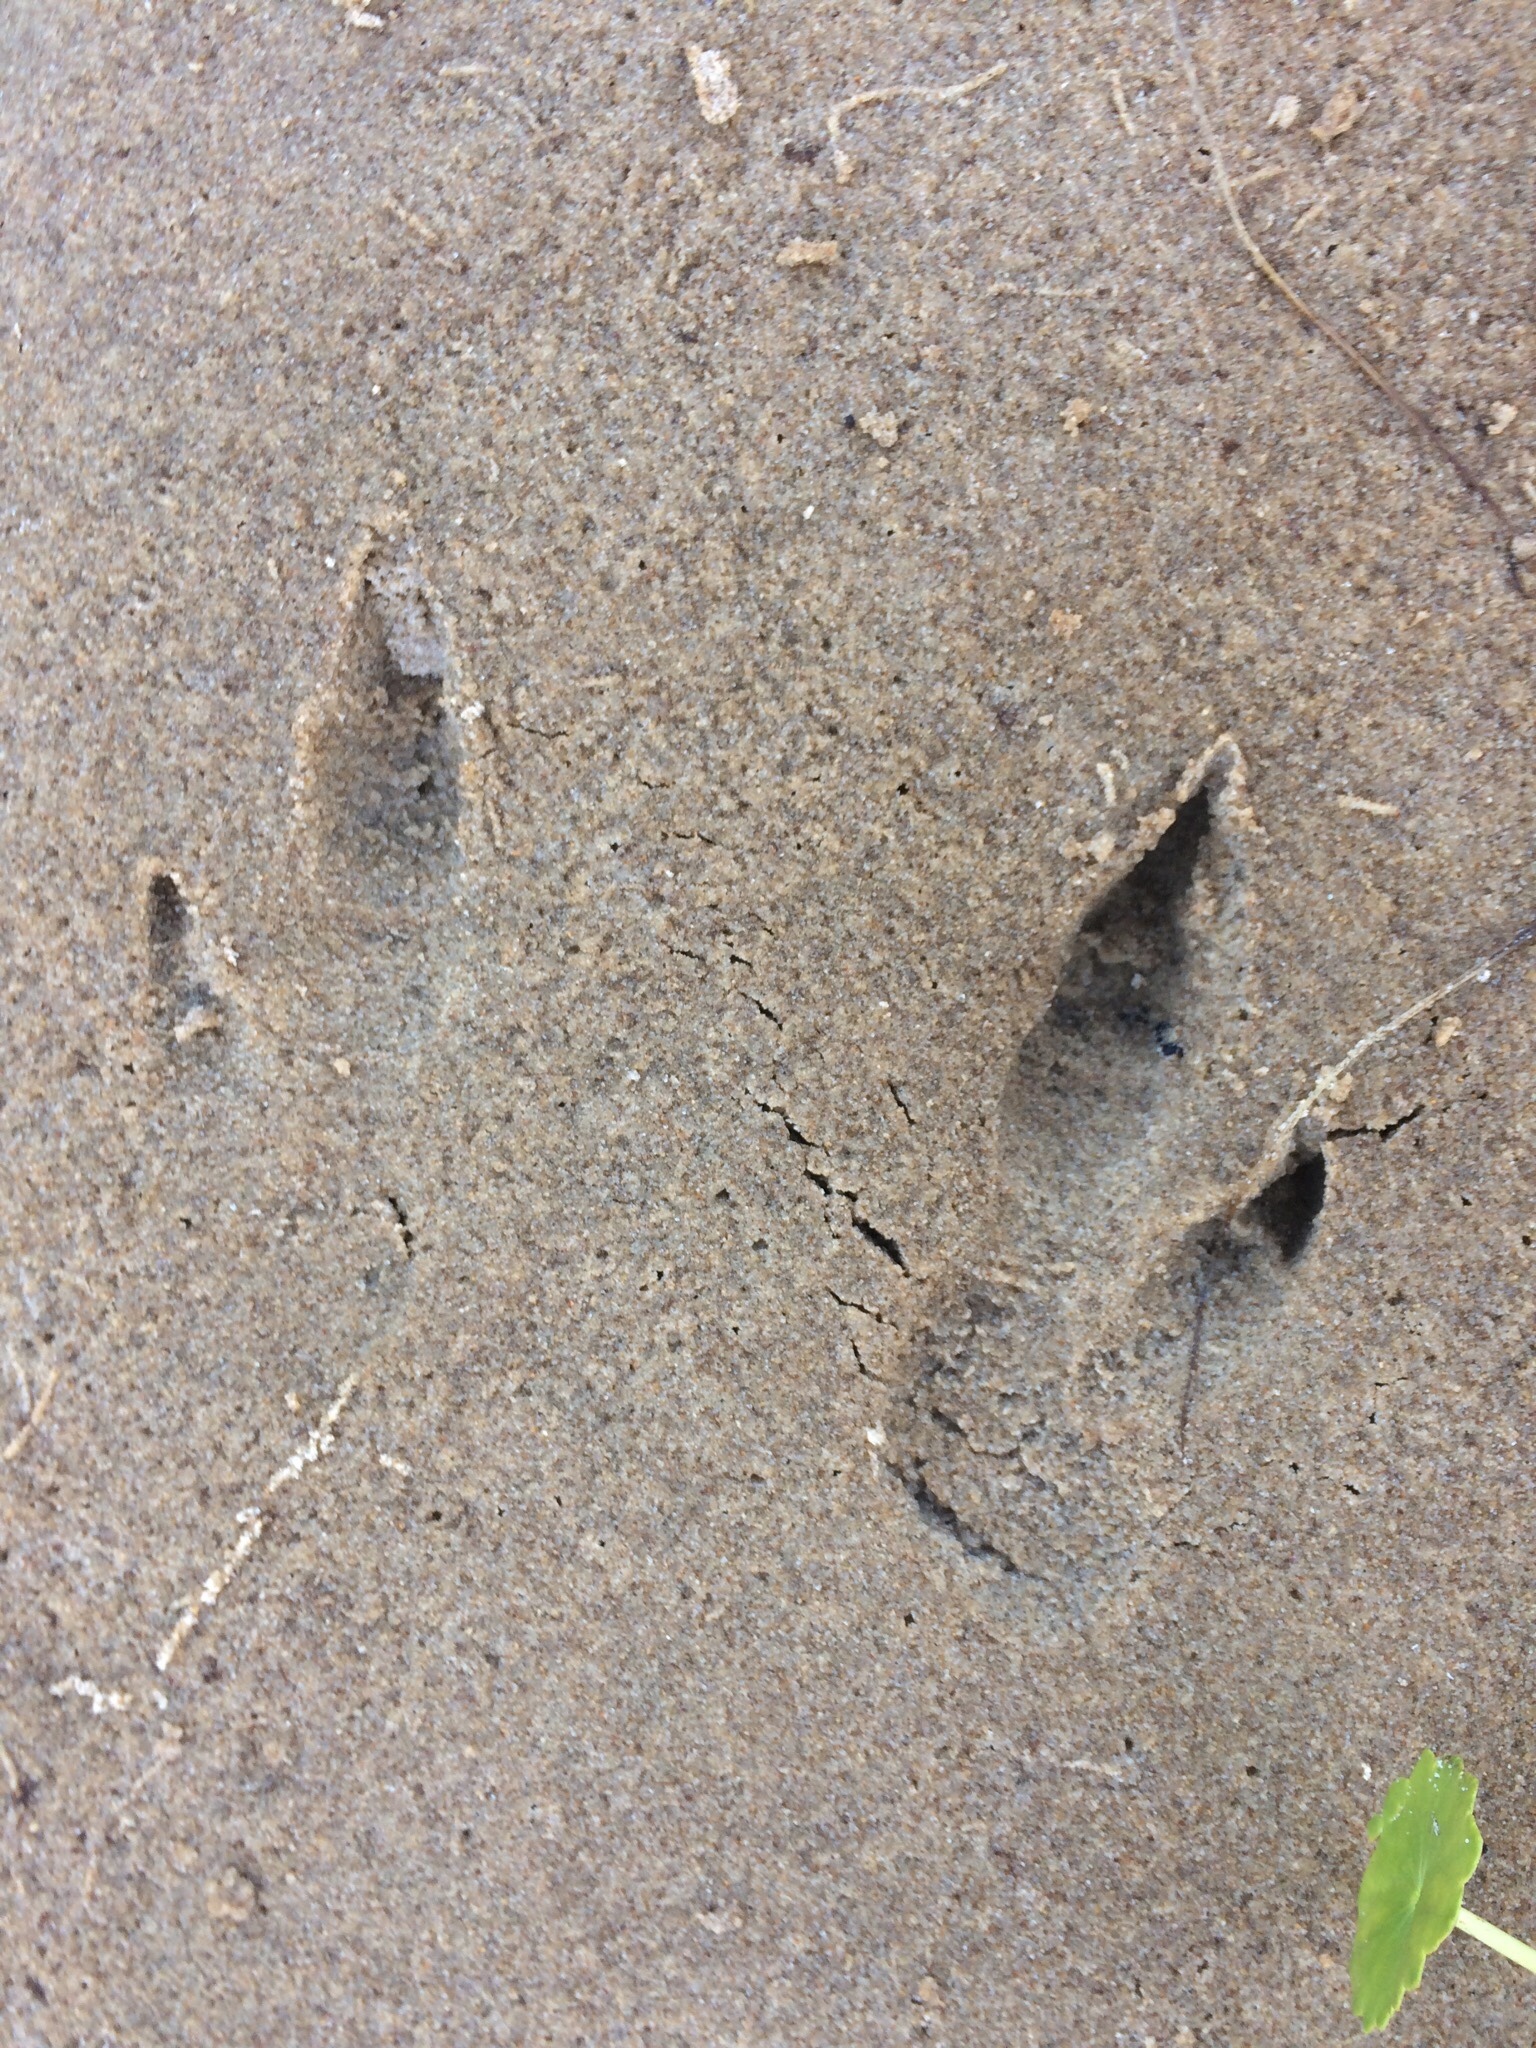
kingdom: Animalia
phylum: Chordata
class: Mammalia
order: Diprotodontia
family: Macropodidae
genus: Notamacropus
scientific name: Notamacropus rufogriseus
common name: Red-necked wallaby
